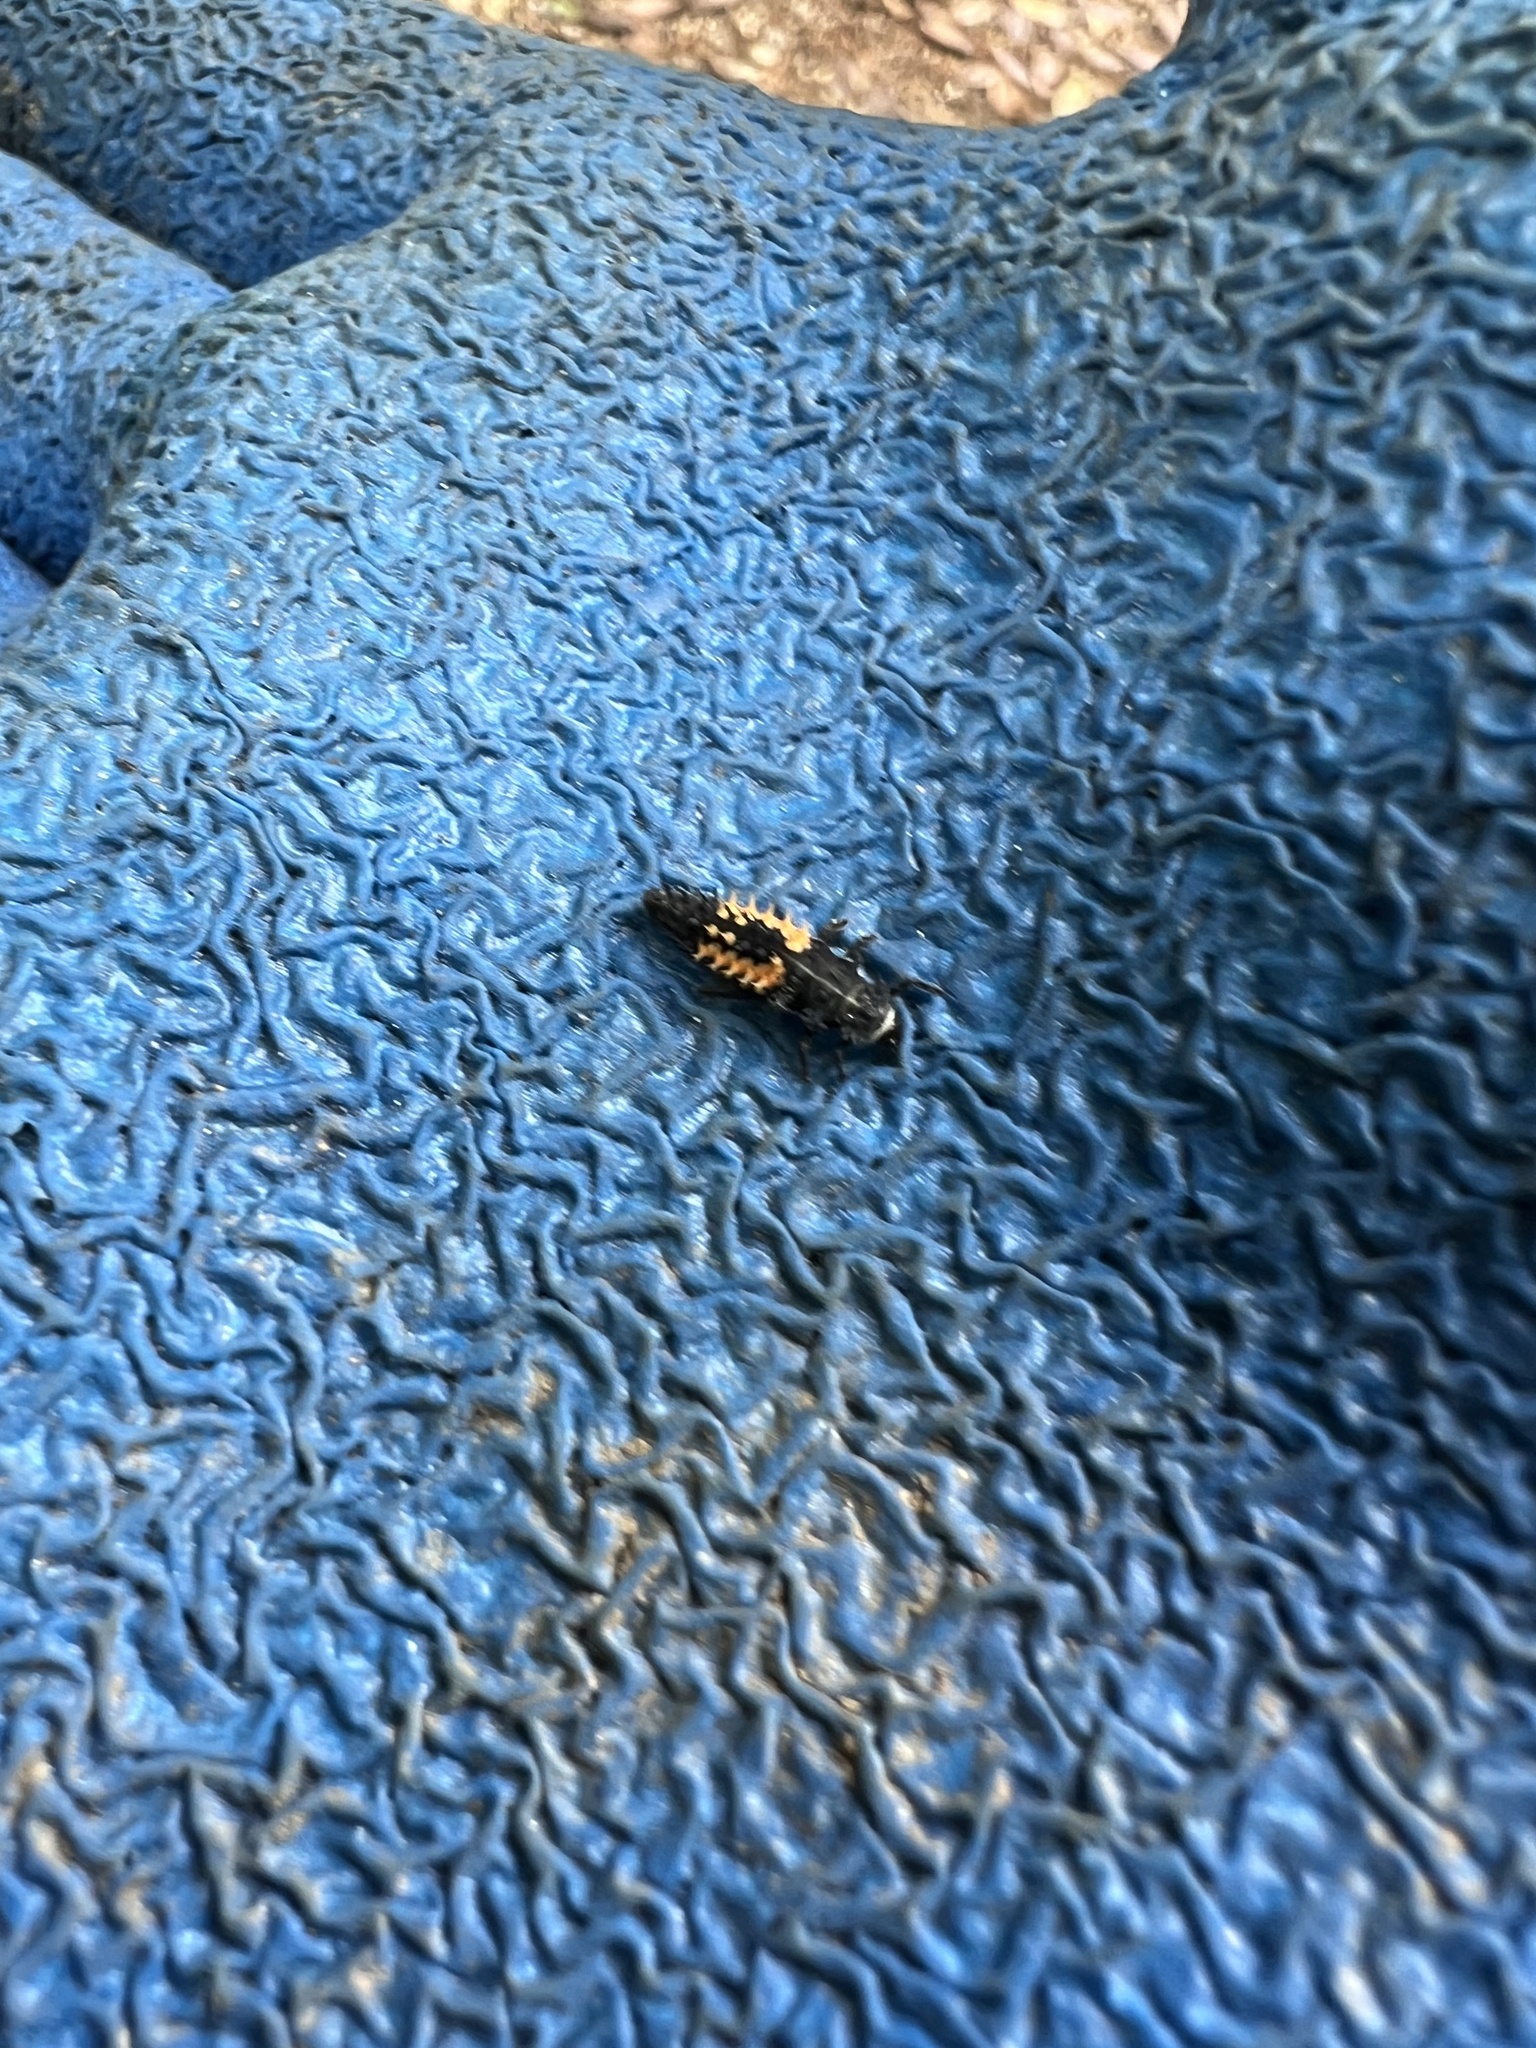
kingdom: Animalia
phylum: Arthropoda
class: Insecta
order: Coleoptera
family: Coccinellidae
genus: Harmonia
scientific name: Harmonia axyridis
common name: Harlequin ladybird
